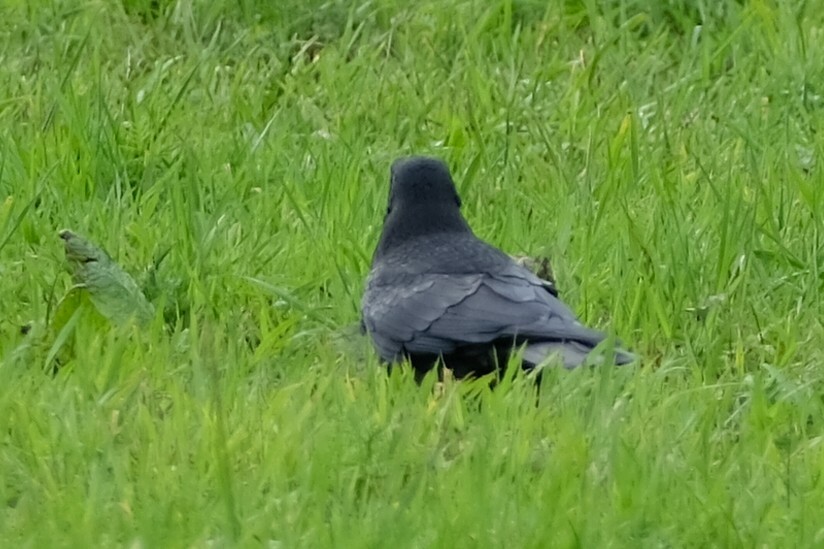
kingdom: Animalia
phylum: Chordata
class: Aves
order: Passeriformes
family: Corvidae
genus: Corvus
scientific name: Corvus corone
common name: Carrion crow
